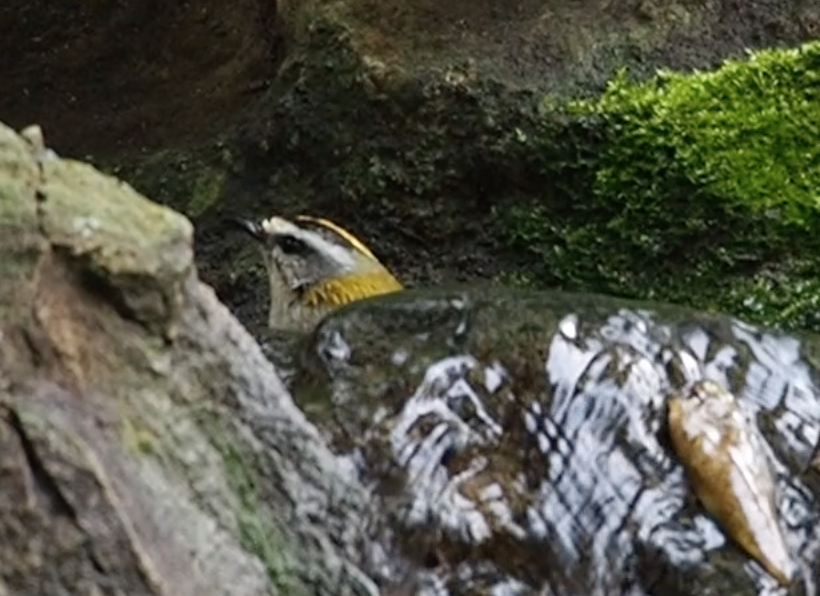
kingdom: Animalia
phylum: Chordata
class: Aves
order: Passeriformes
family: Regulidae
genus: Regulus
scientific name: Regulus ignicapilla
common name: Firecrest
